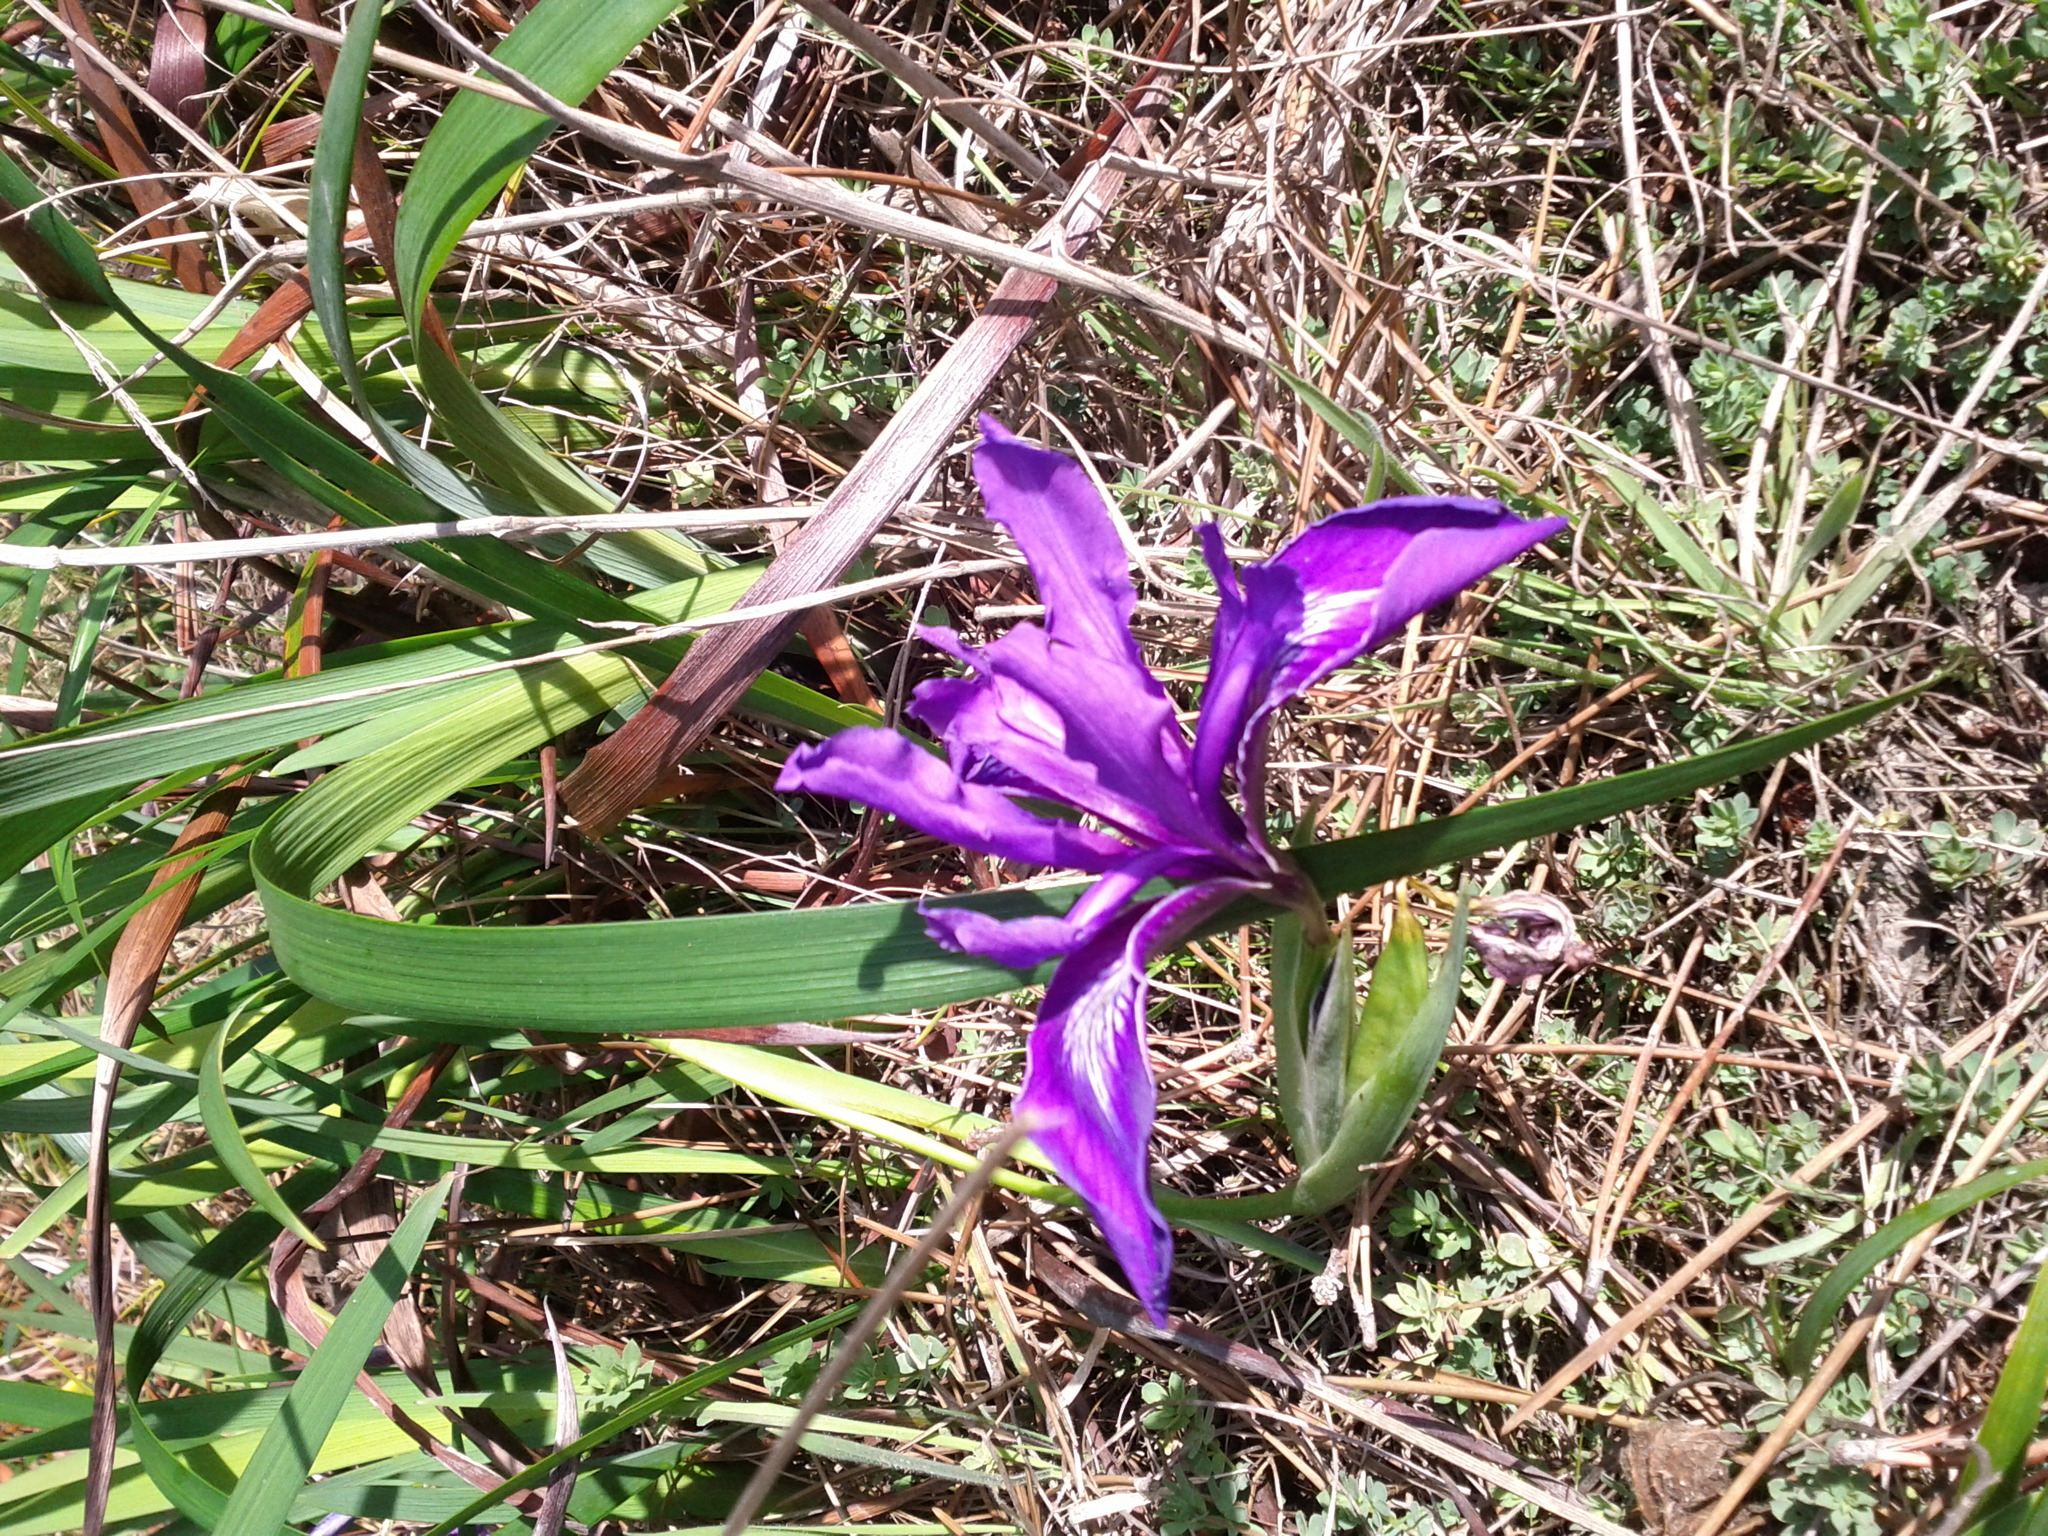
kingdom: Plantae
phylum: Tracheophyta
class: Liliopsida
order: Asparagales
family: Iridaceae
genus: Iris
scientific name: Iris douglasiana
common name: Marin iris
